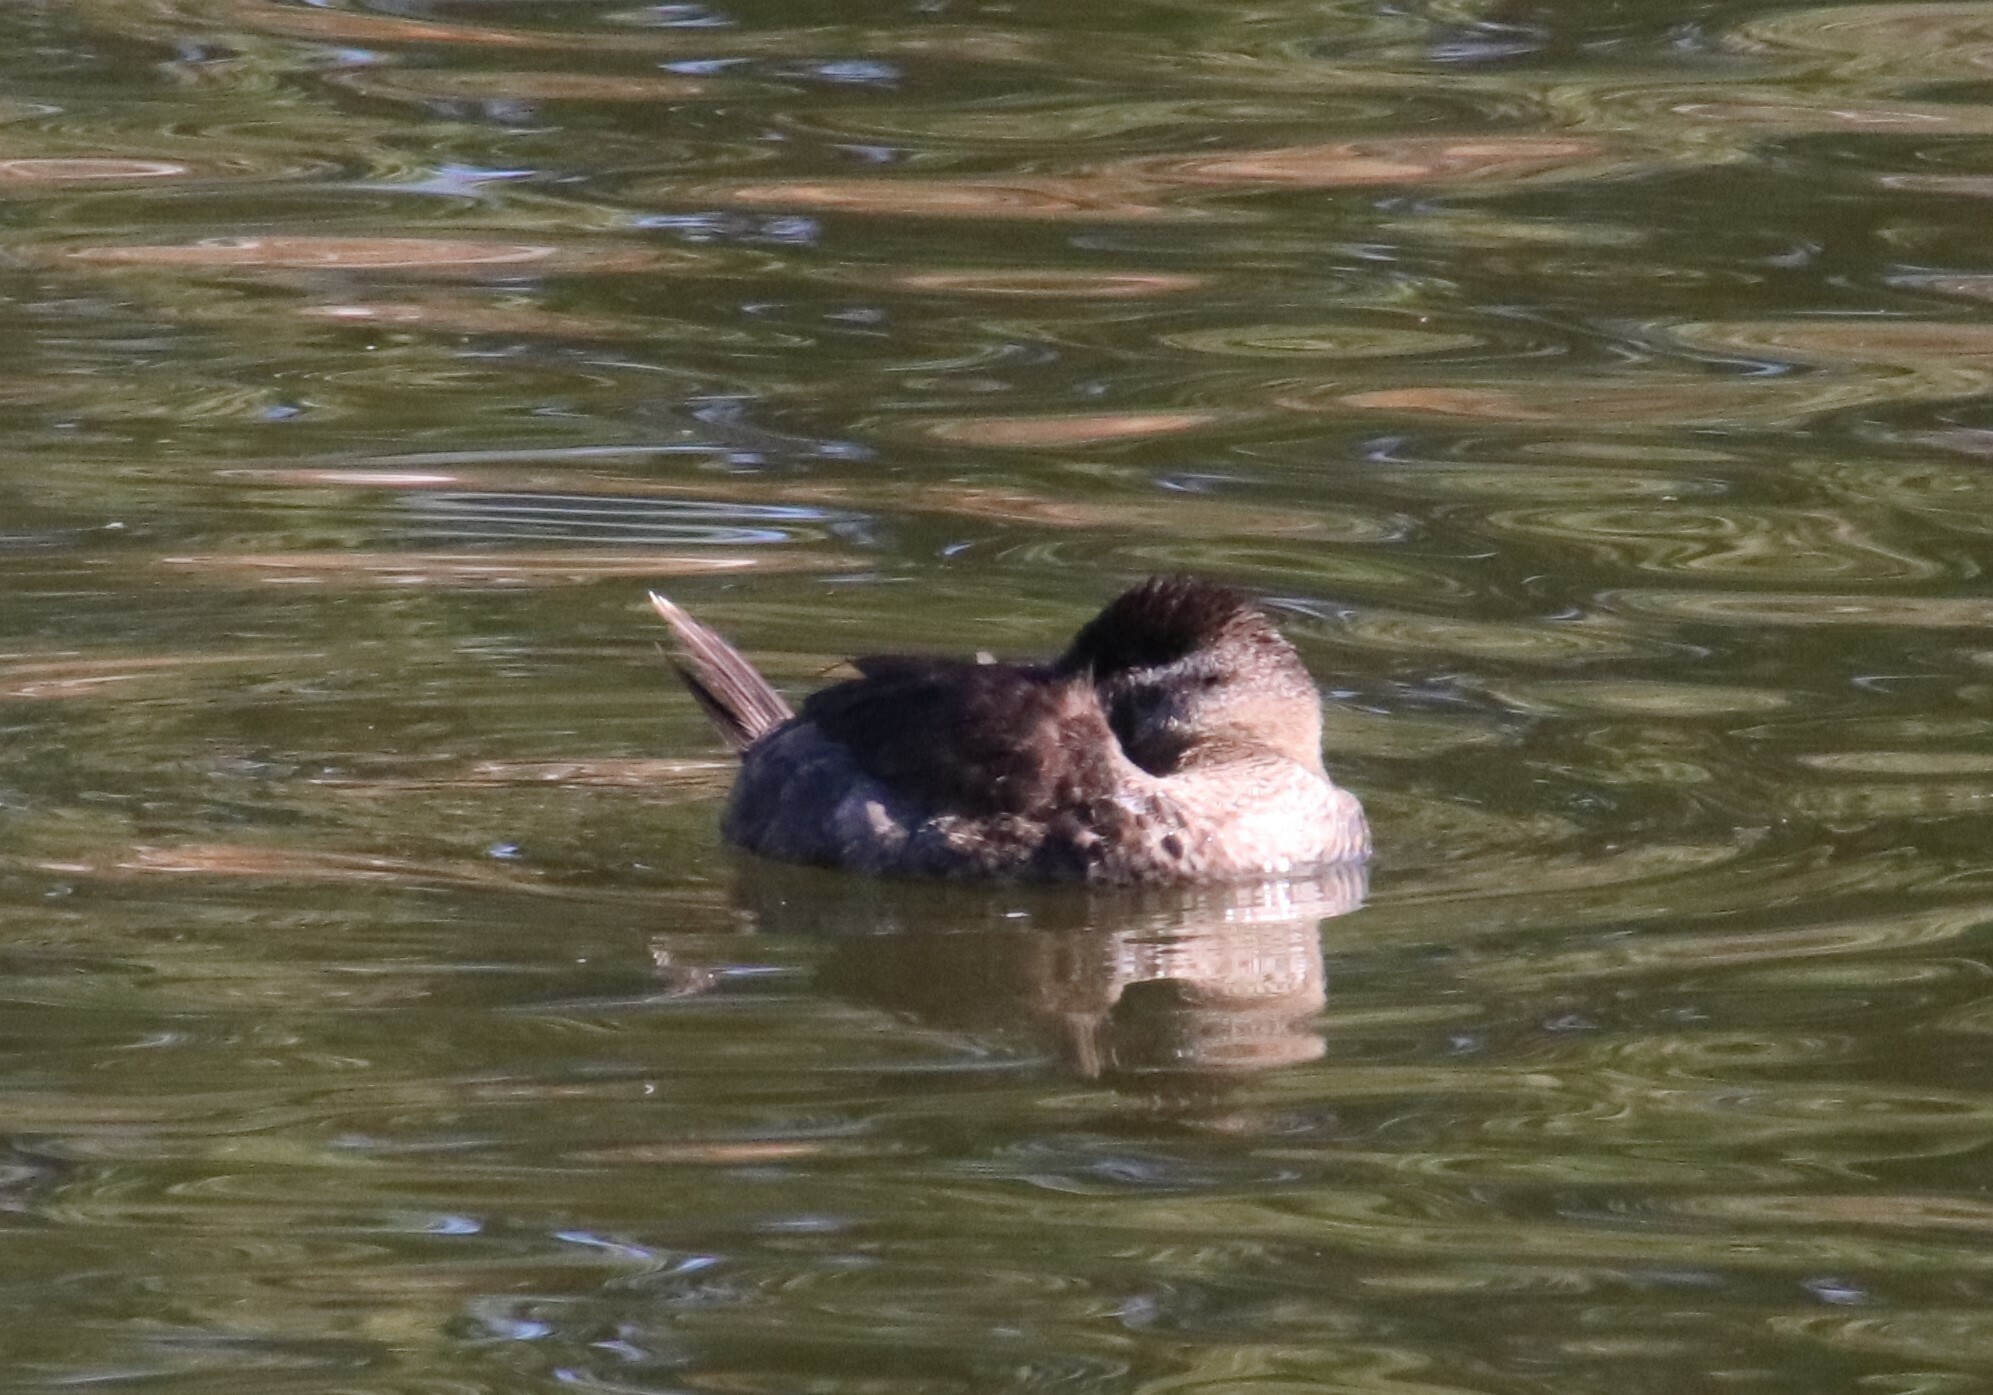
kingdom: Animalia
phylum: Chordata
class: Aves
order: Anseriformes
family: Anatidae
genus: Oxyura
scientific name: Oxyura jamaicensis
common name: Ruddy duck
